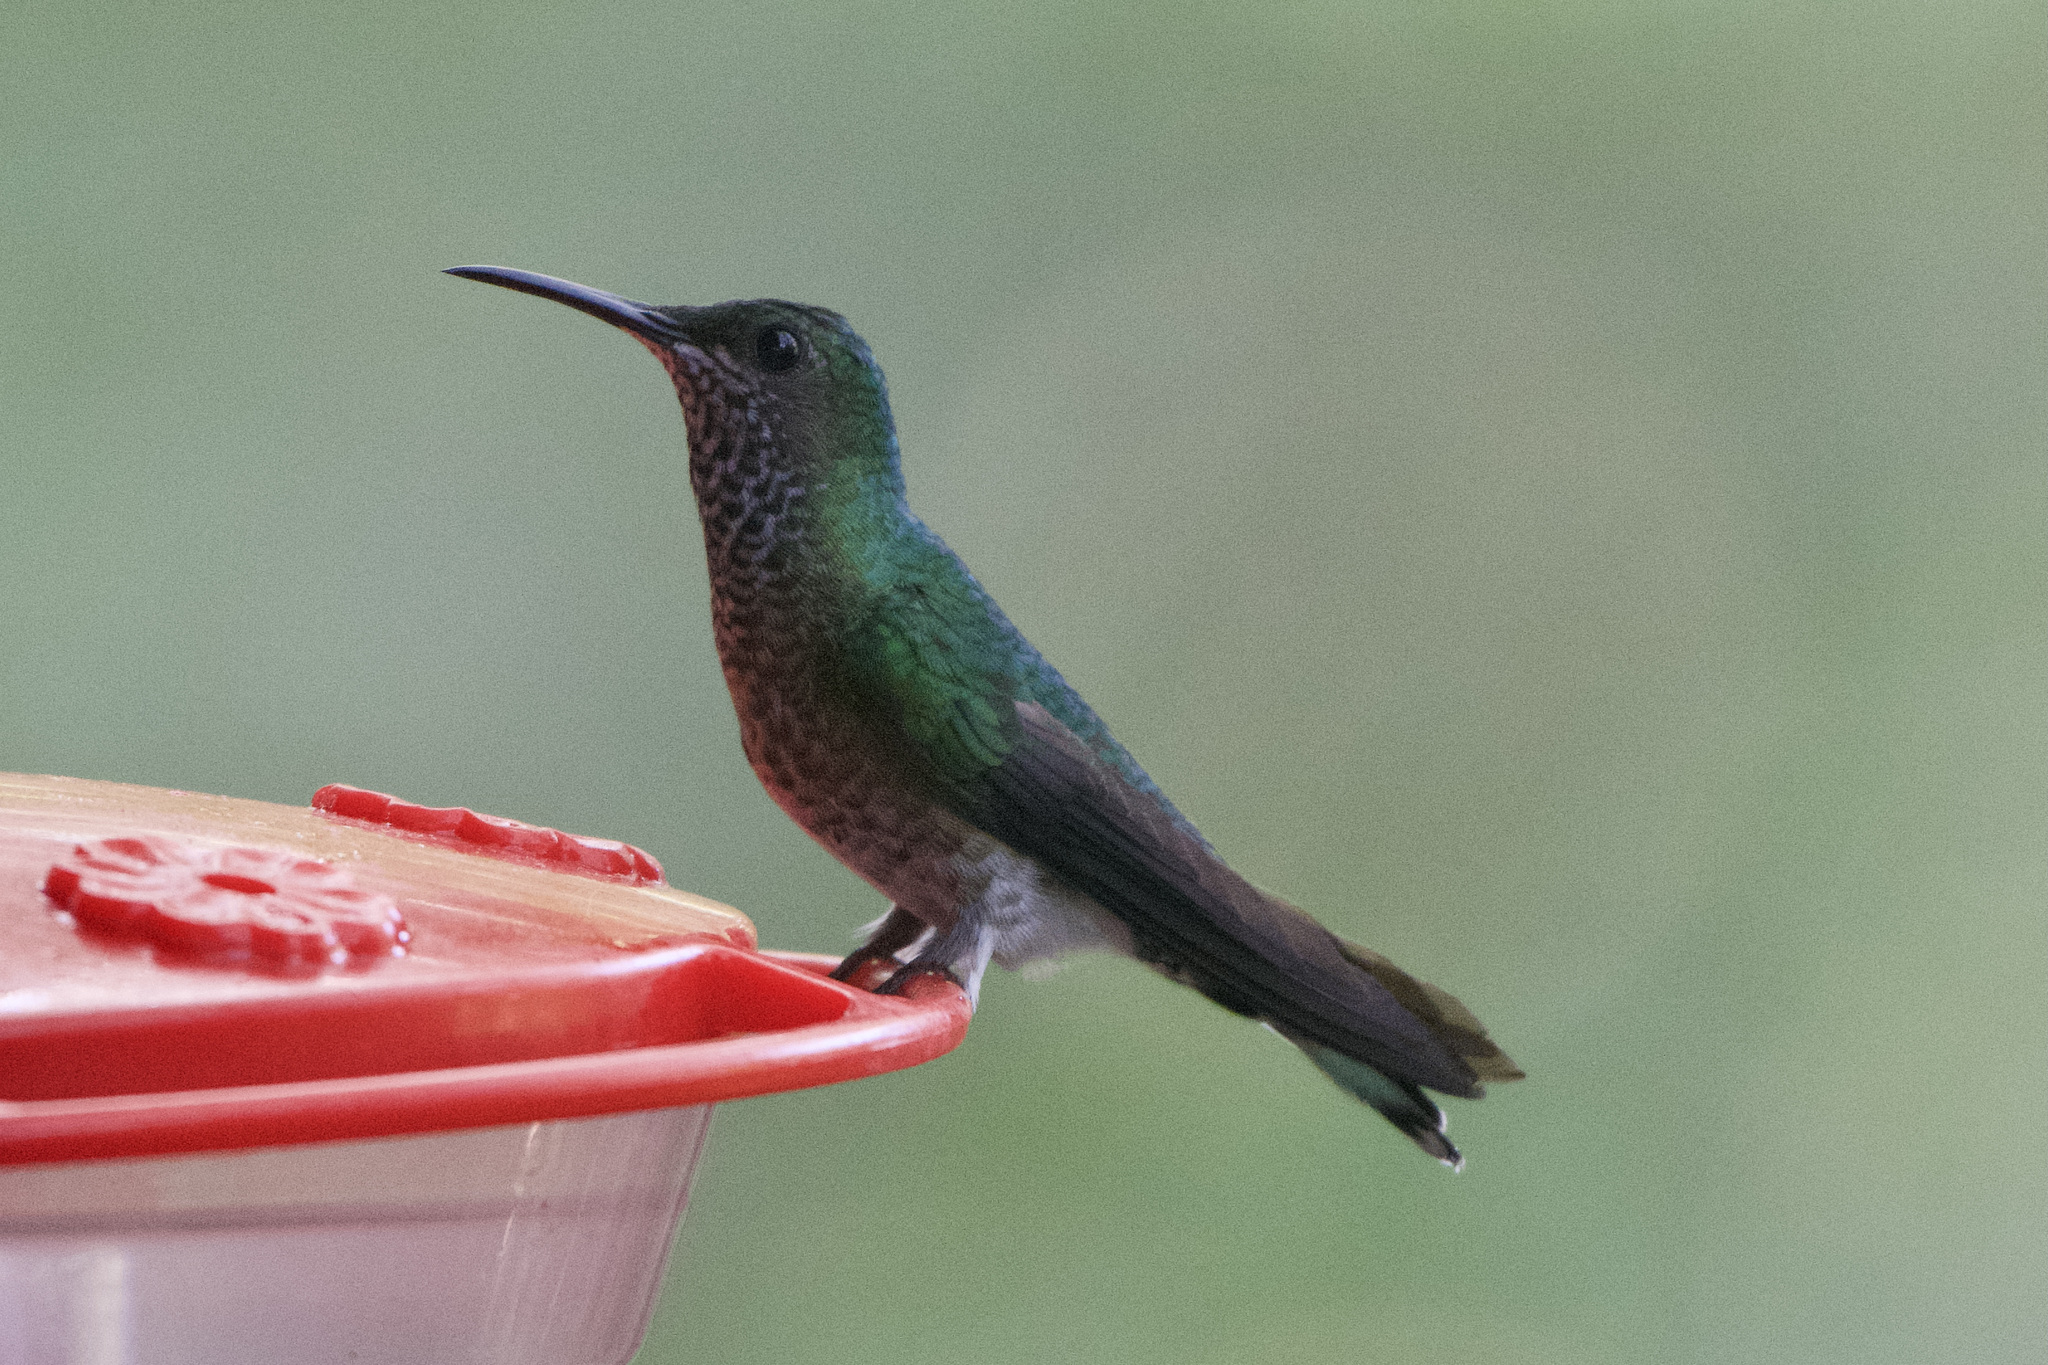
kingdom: Animalia
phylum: Chordata
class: Aves
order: Apodiformes
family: Trochilidae
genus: Florisuga
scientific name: Florisuga mellivora
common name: White-necked jacobin
